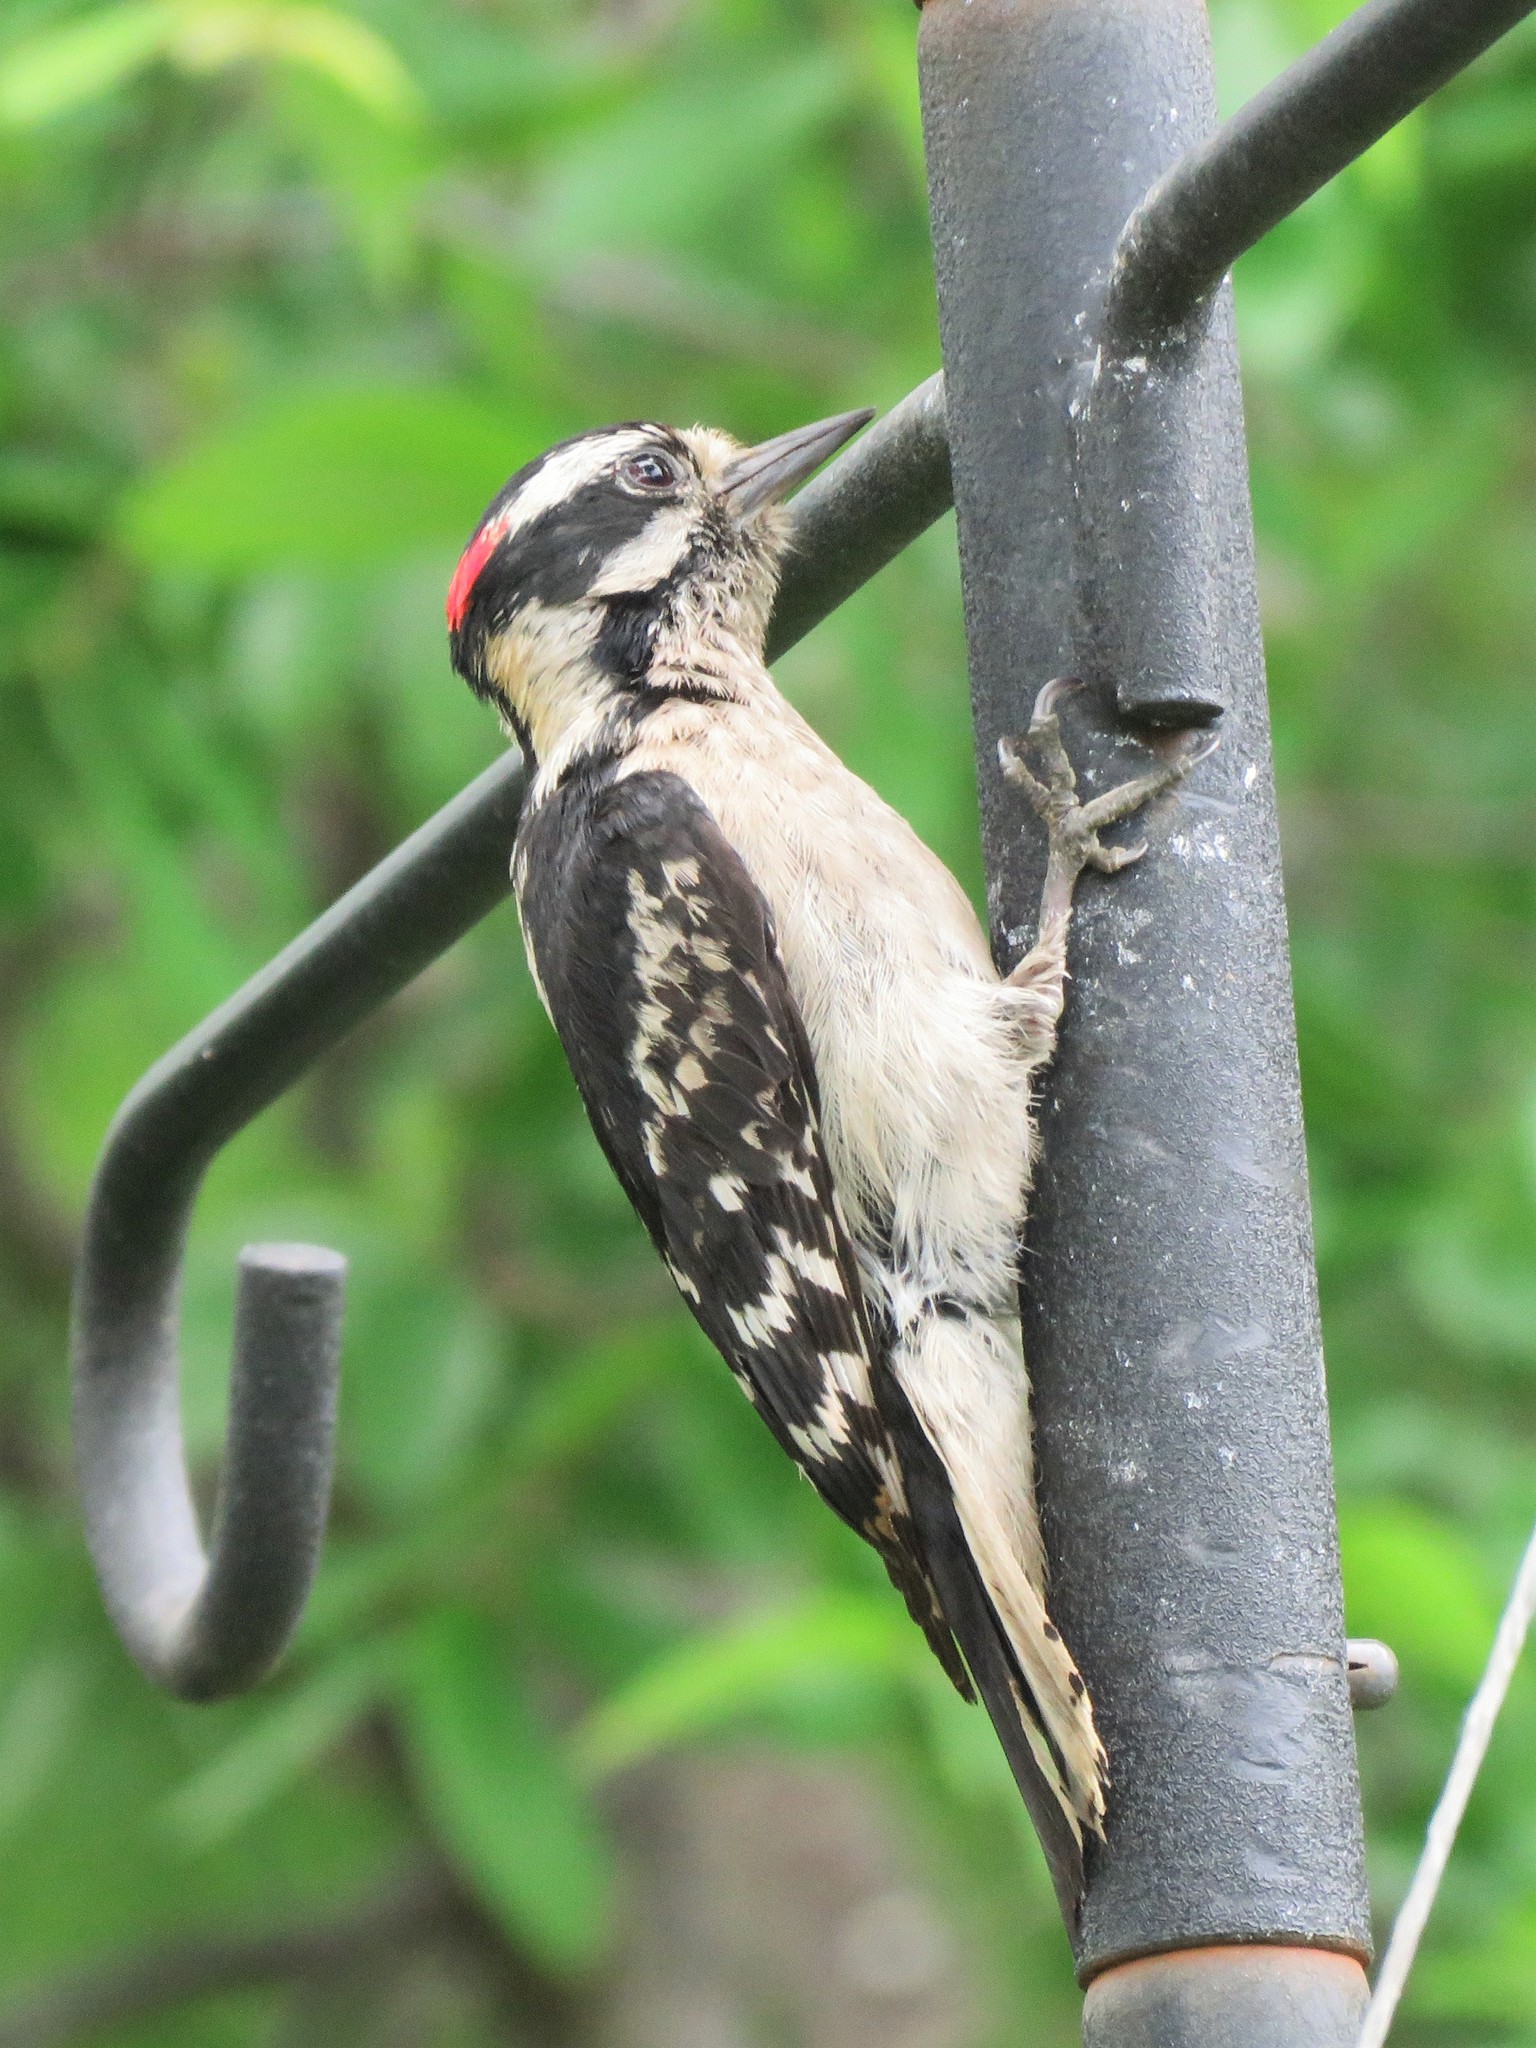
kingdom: Animalia
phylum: Chordata
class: Aves
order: Piciformes
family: Picidae
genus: Dryobates
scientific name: Dryobates pubescens
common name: Downy woodpecker
